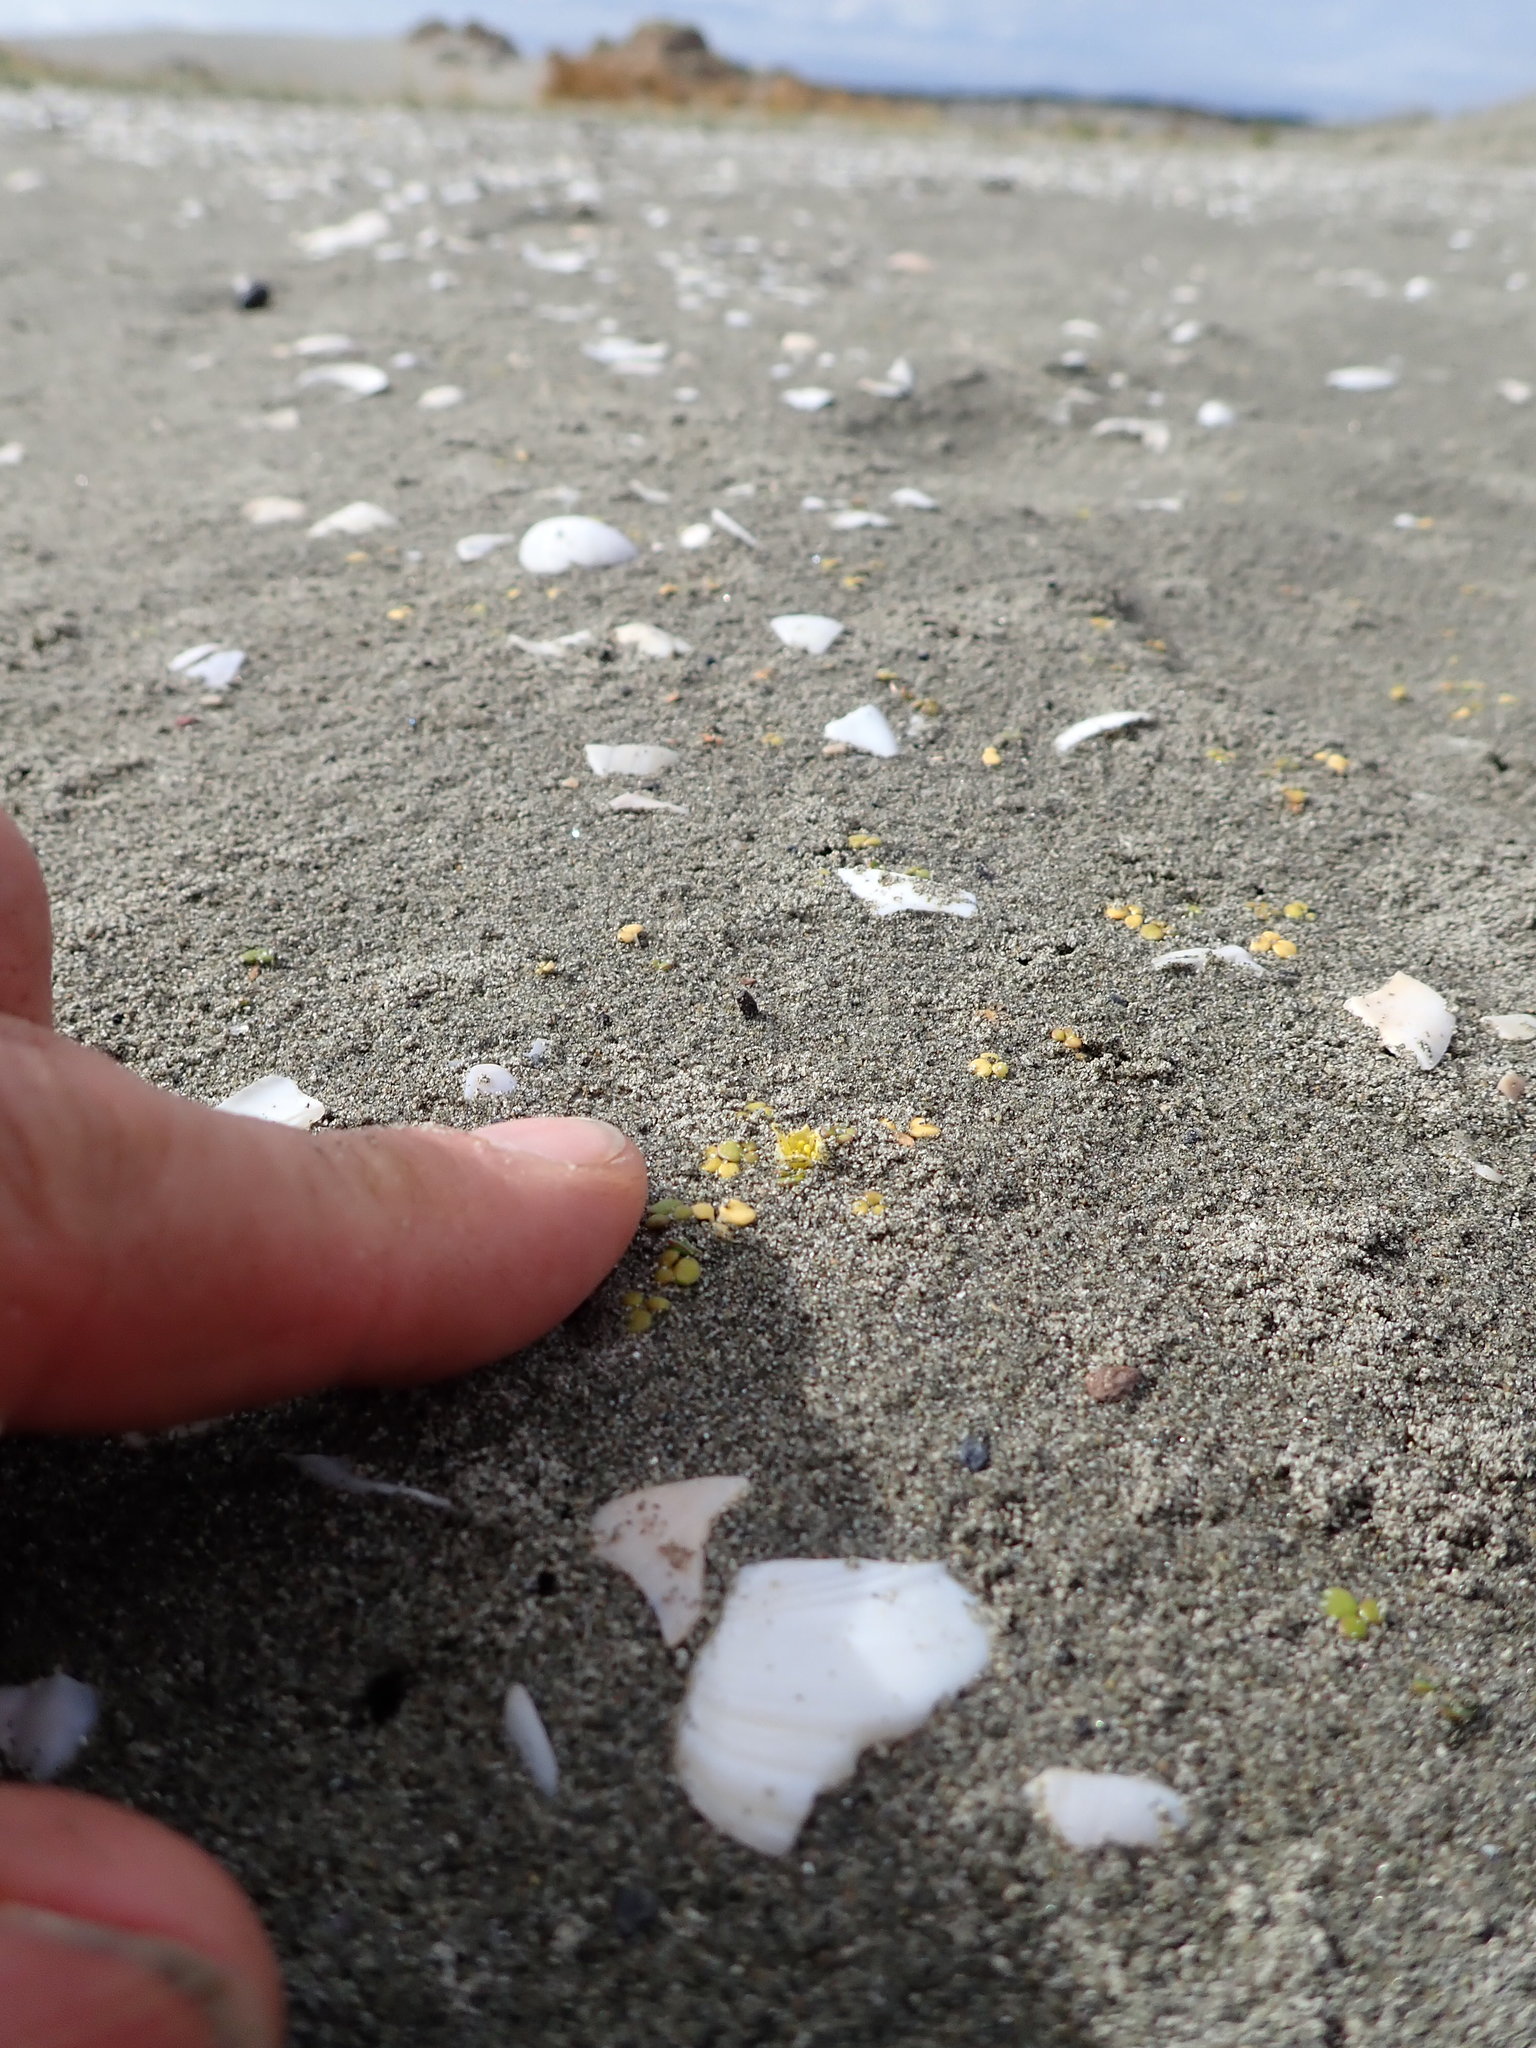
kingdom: Plantae
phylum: Tracheophyta
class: Magnoliopsida
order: Ranunculales
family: Ranunculaceae
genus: Ranunculus
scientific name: Ranunculus acaulis
